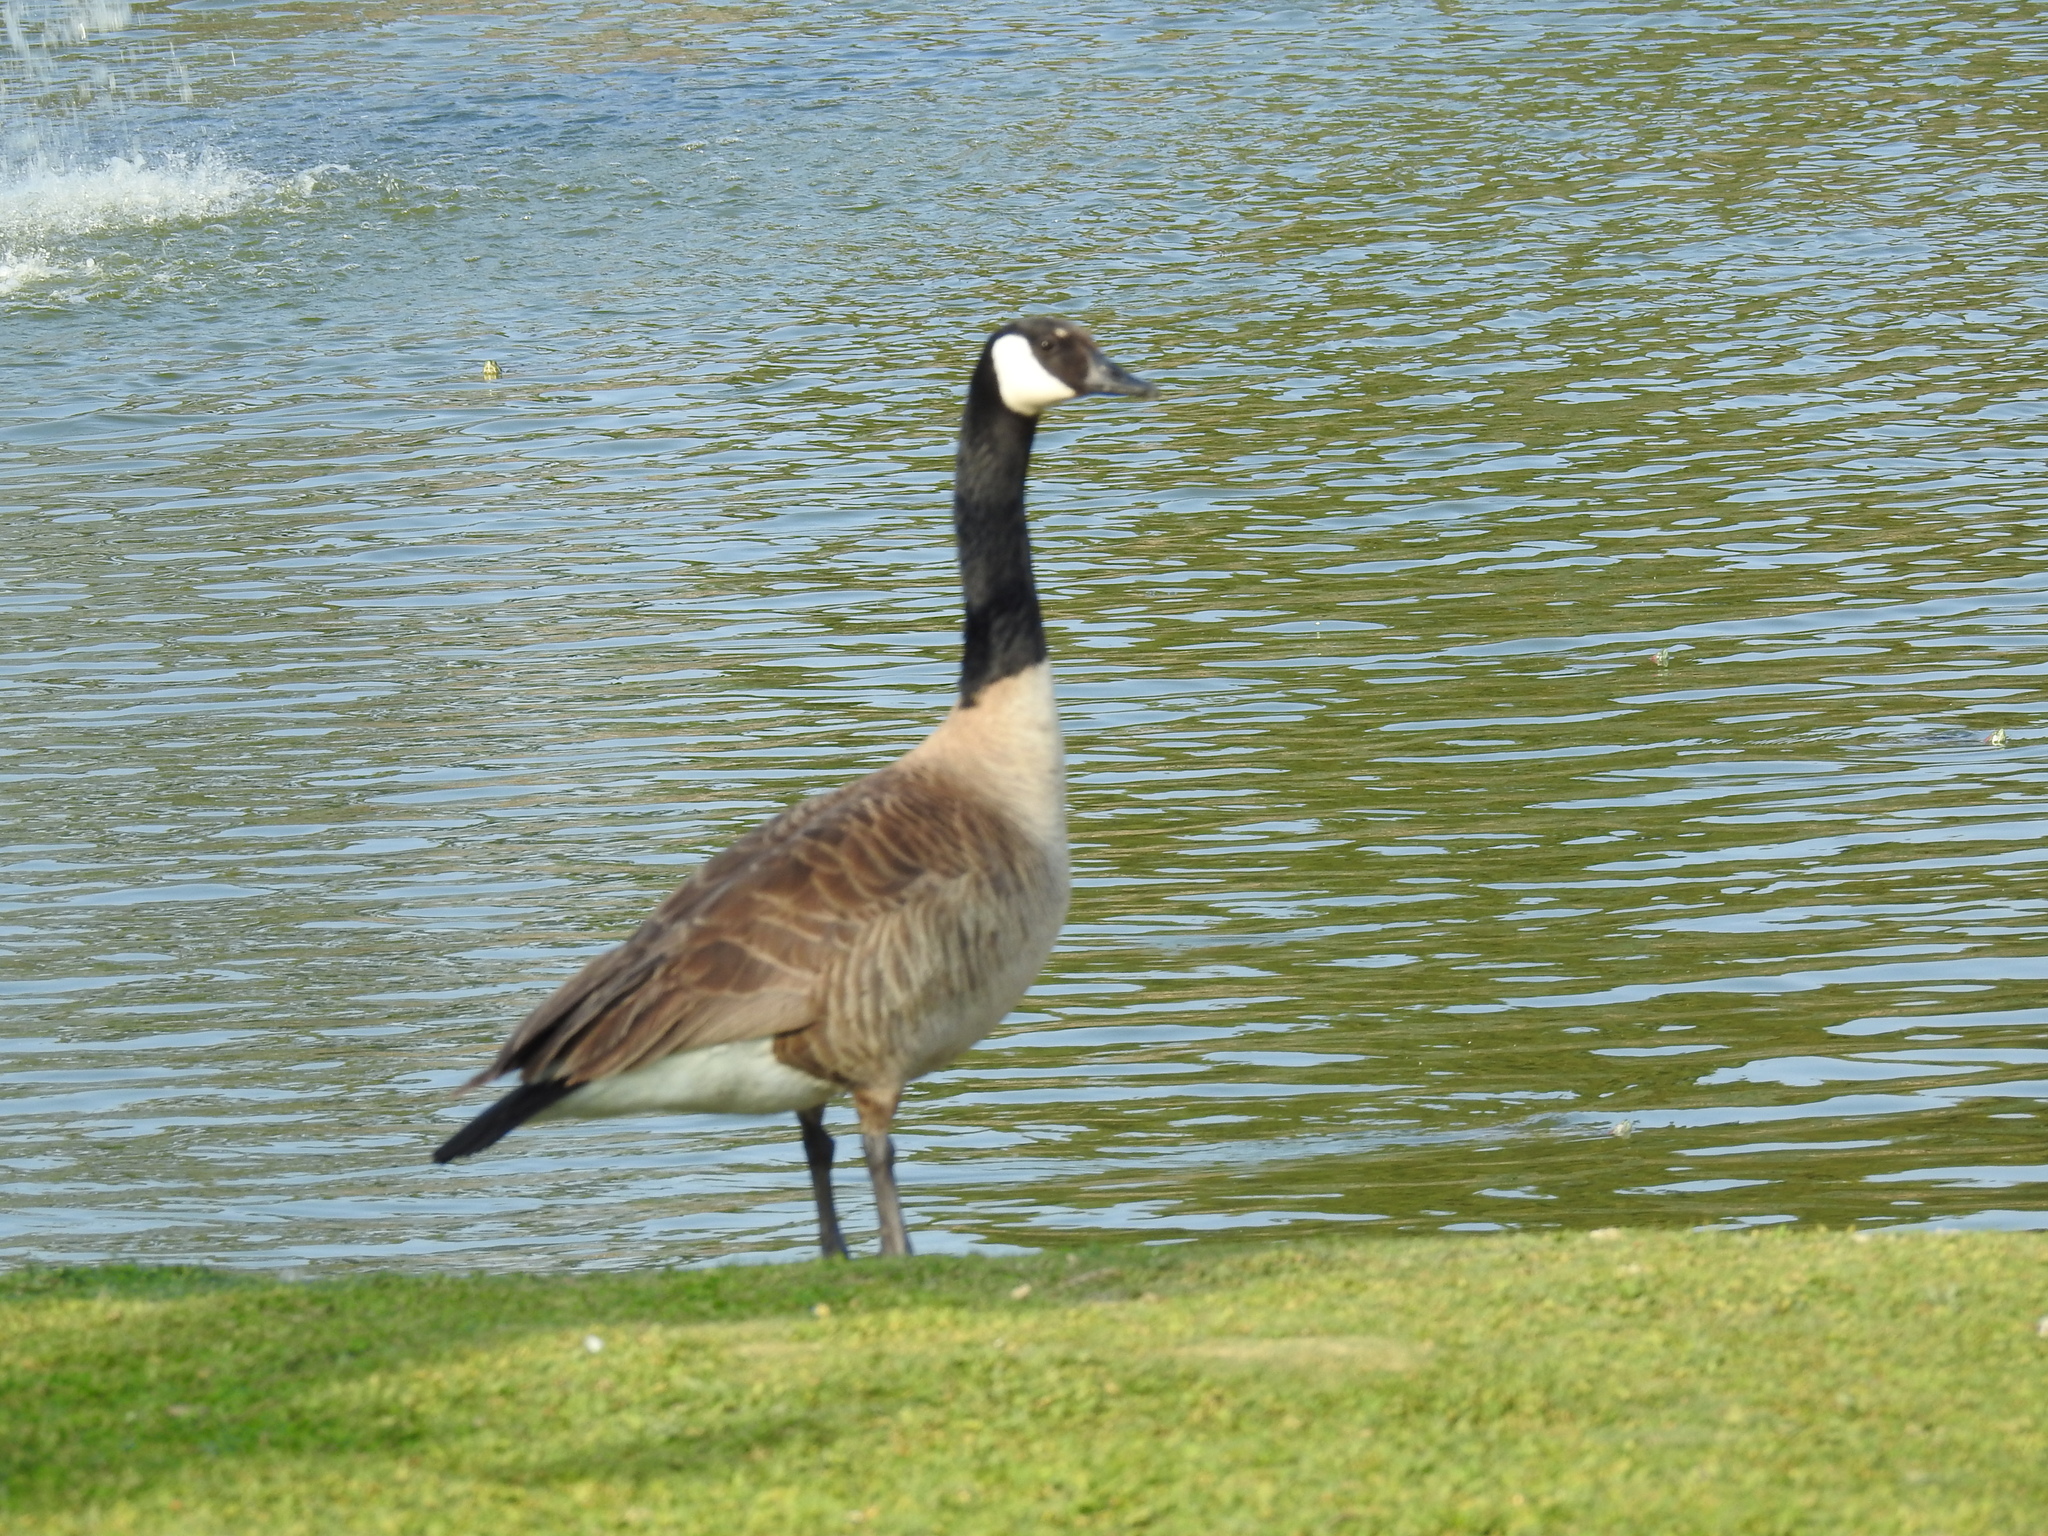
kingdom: Animalia
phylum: Chordata
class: Aves
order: Anseriformes
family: Anatidae
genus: Branta
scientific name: Branta canadensis
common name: Canada goose
